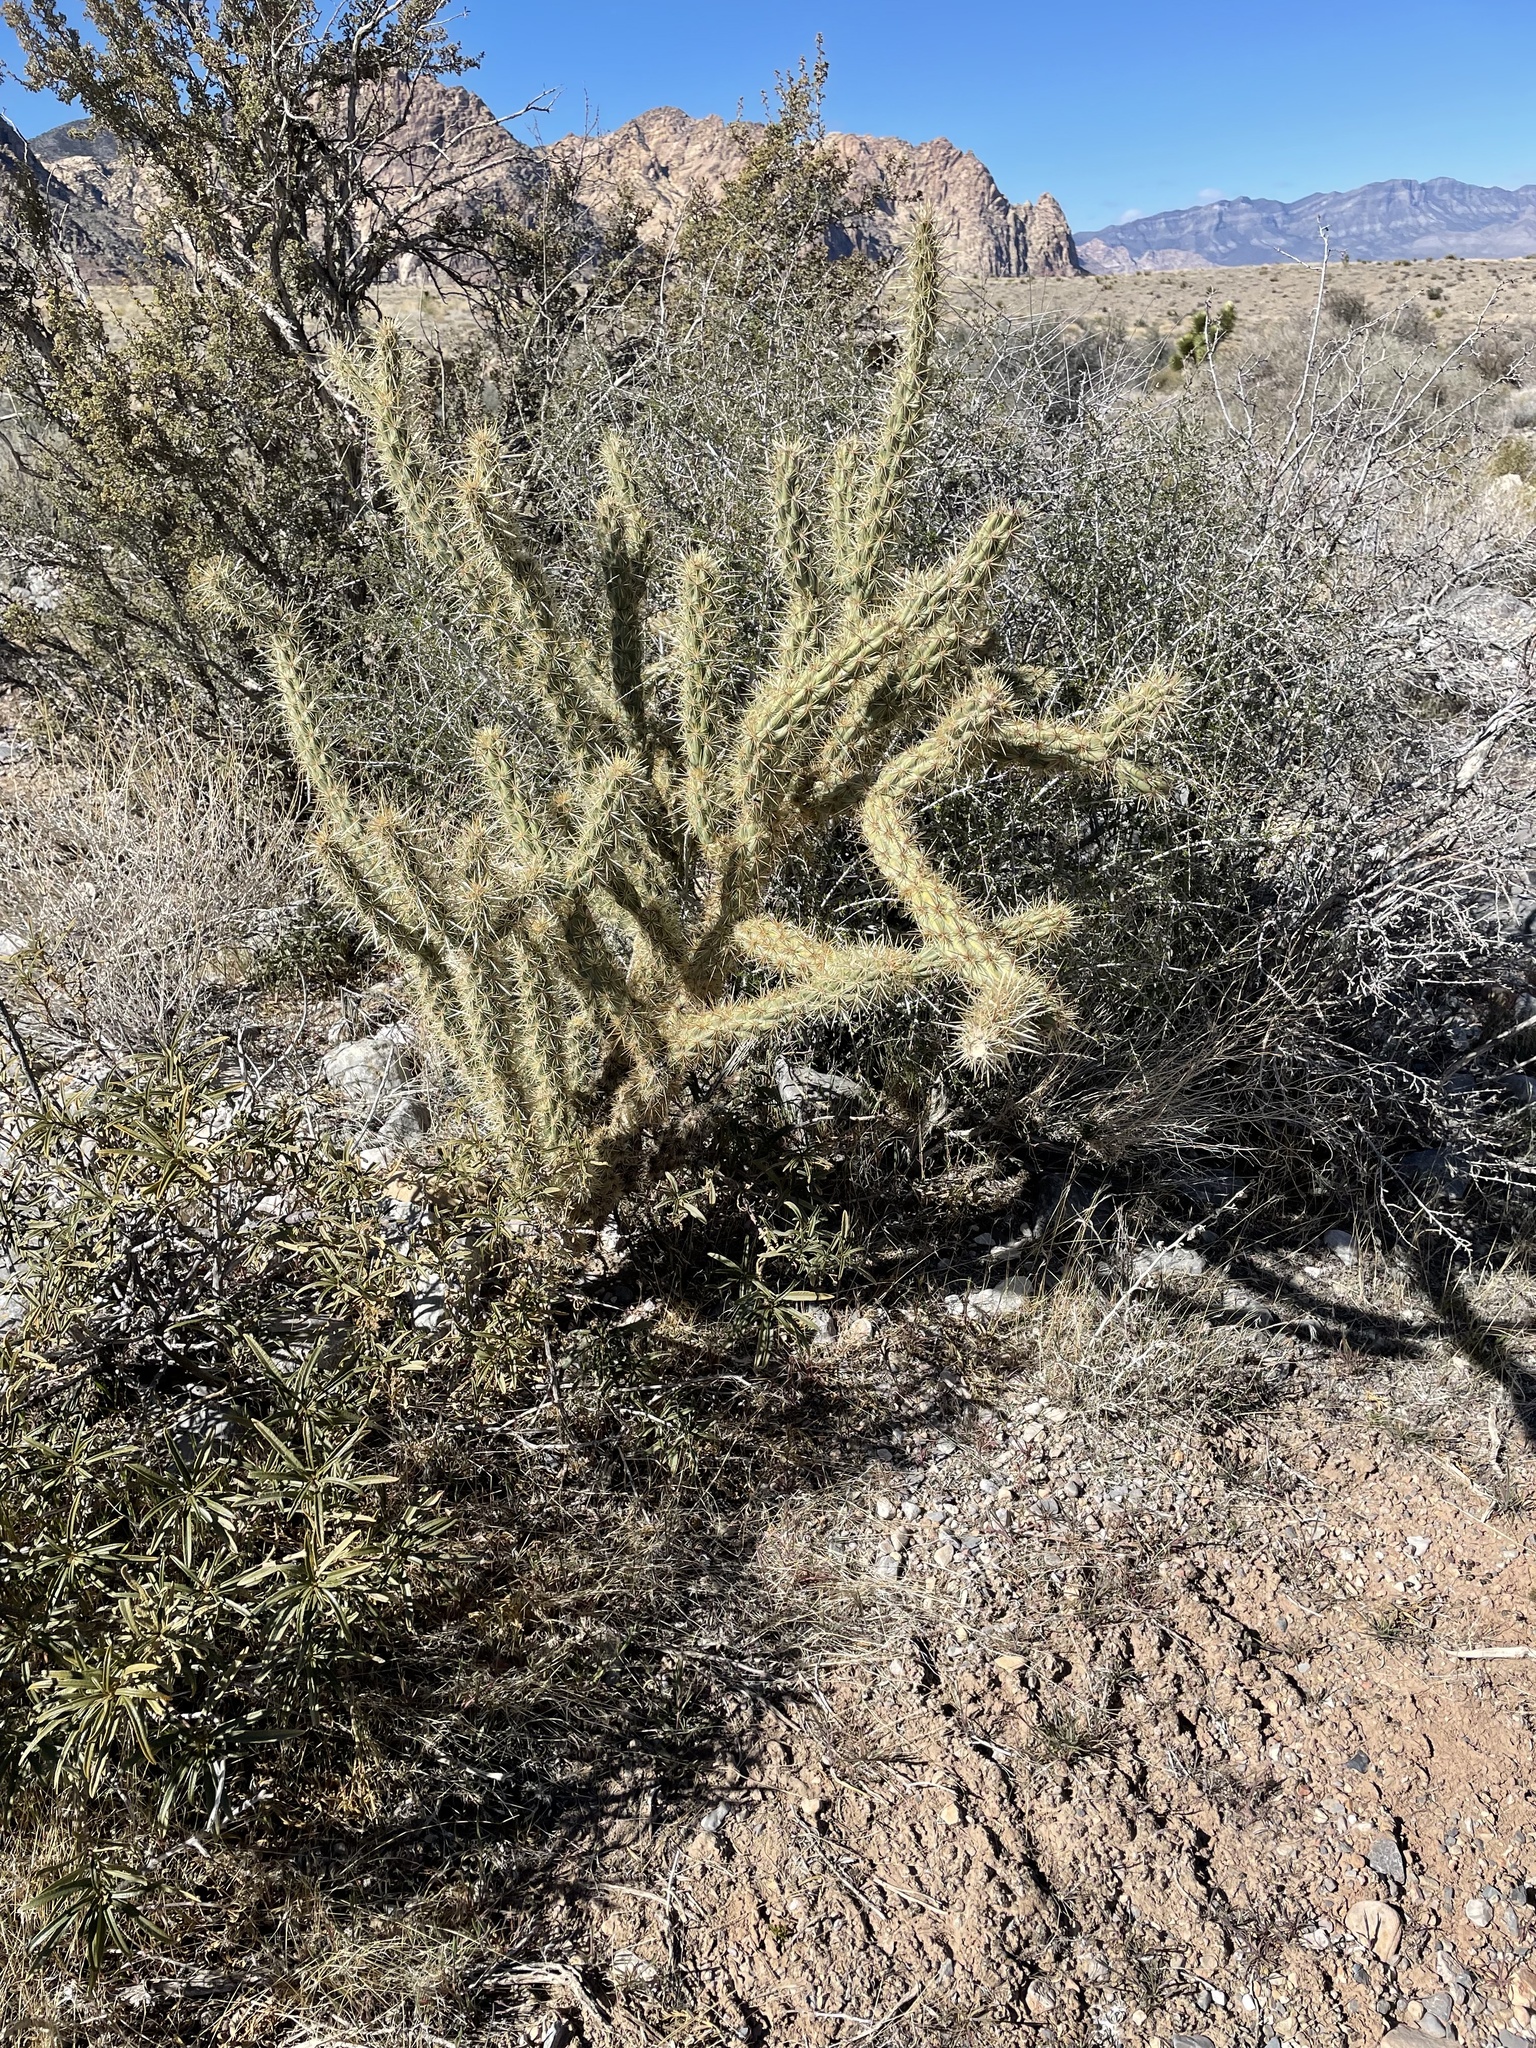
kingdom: Plantae
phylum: Tracheophyta
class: Magnoliopsida
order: Caryophyllales
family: Cactaceae
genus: Cylindropuntia
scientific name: Cylindropuntia acanthocarpa
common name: Buckhorn cholla
